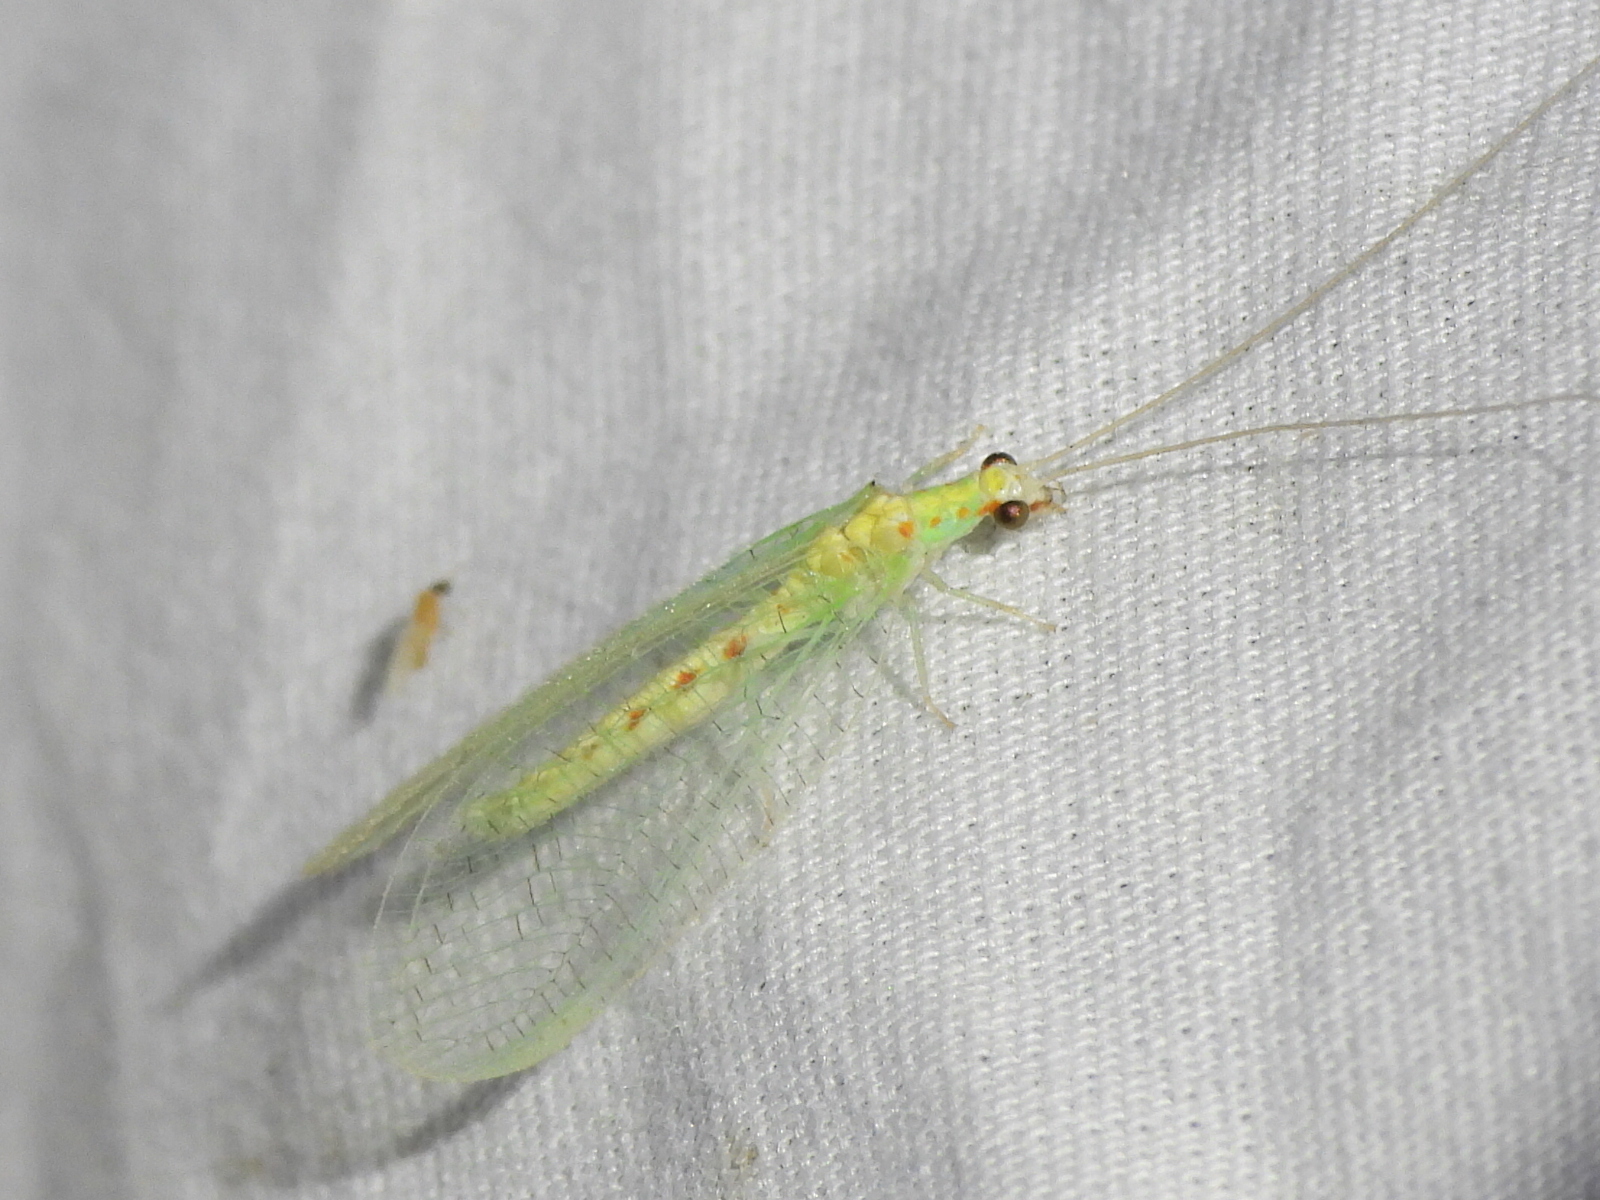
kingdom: Animalia
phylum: Arthropoda
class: Insecta
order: Neuroptera
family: Chrysopidae
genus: Chrysopa
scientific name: Chrysopa quadripunctata
